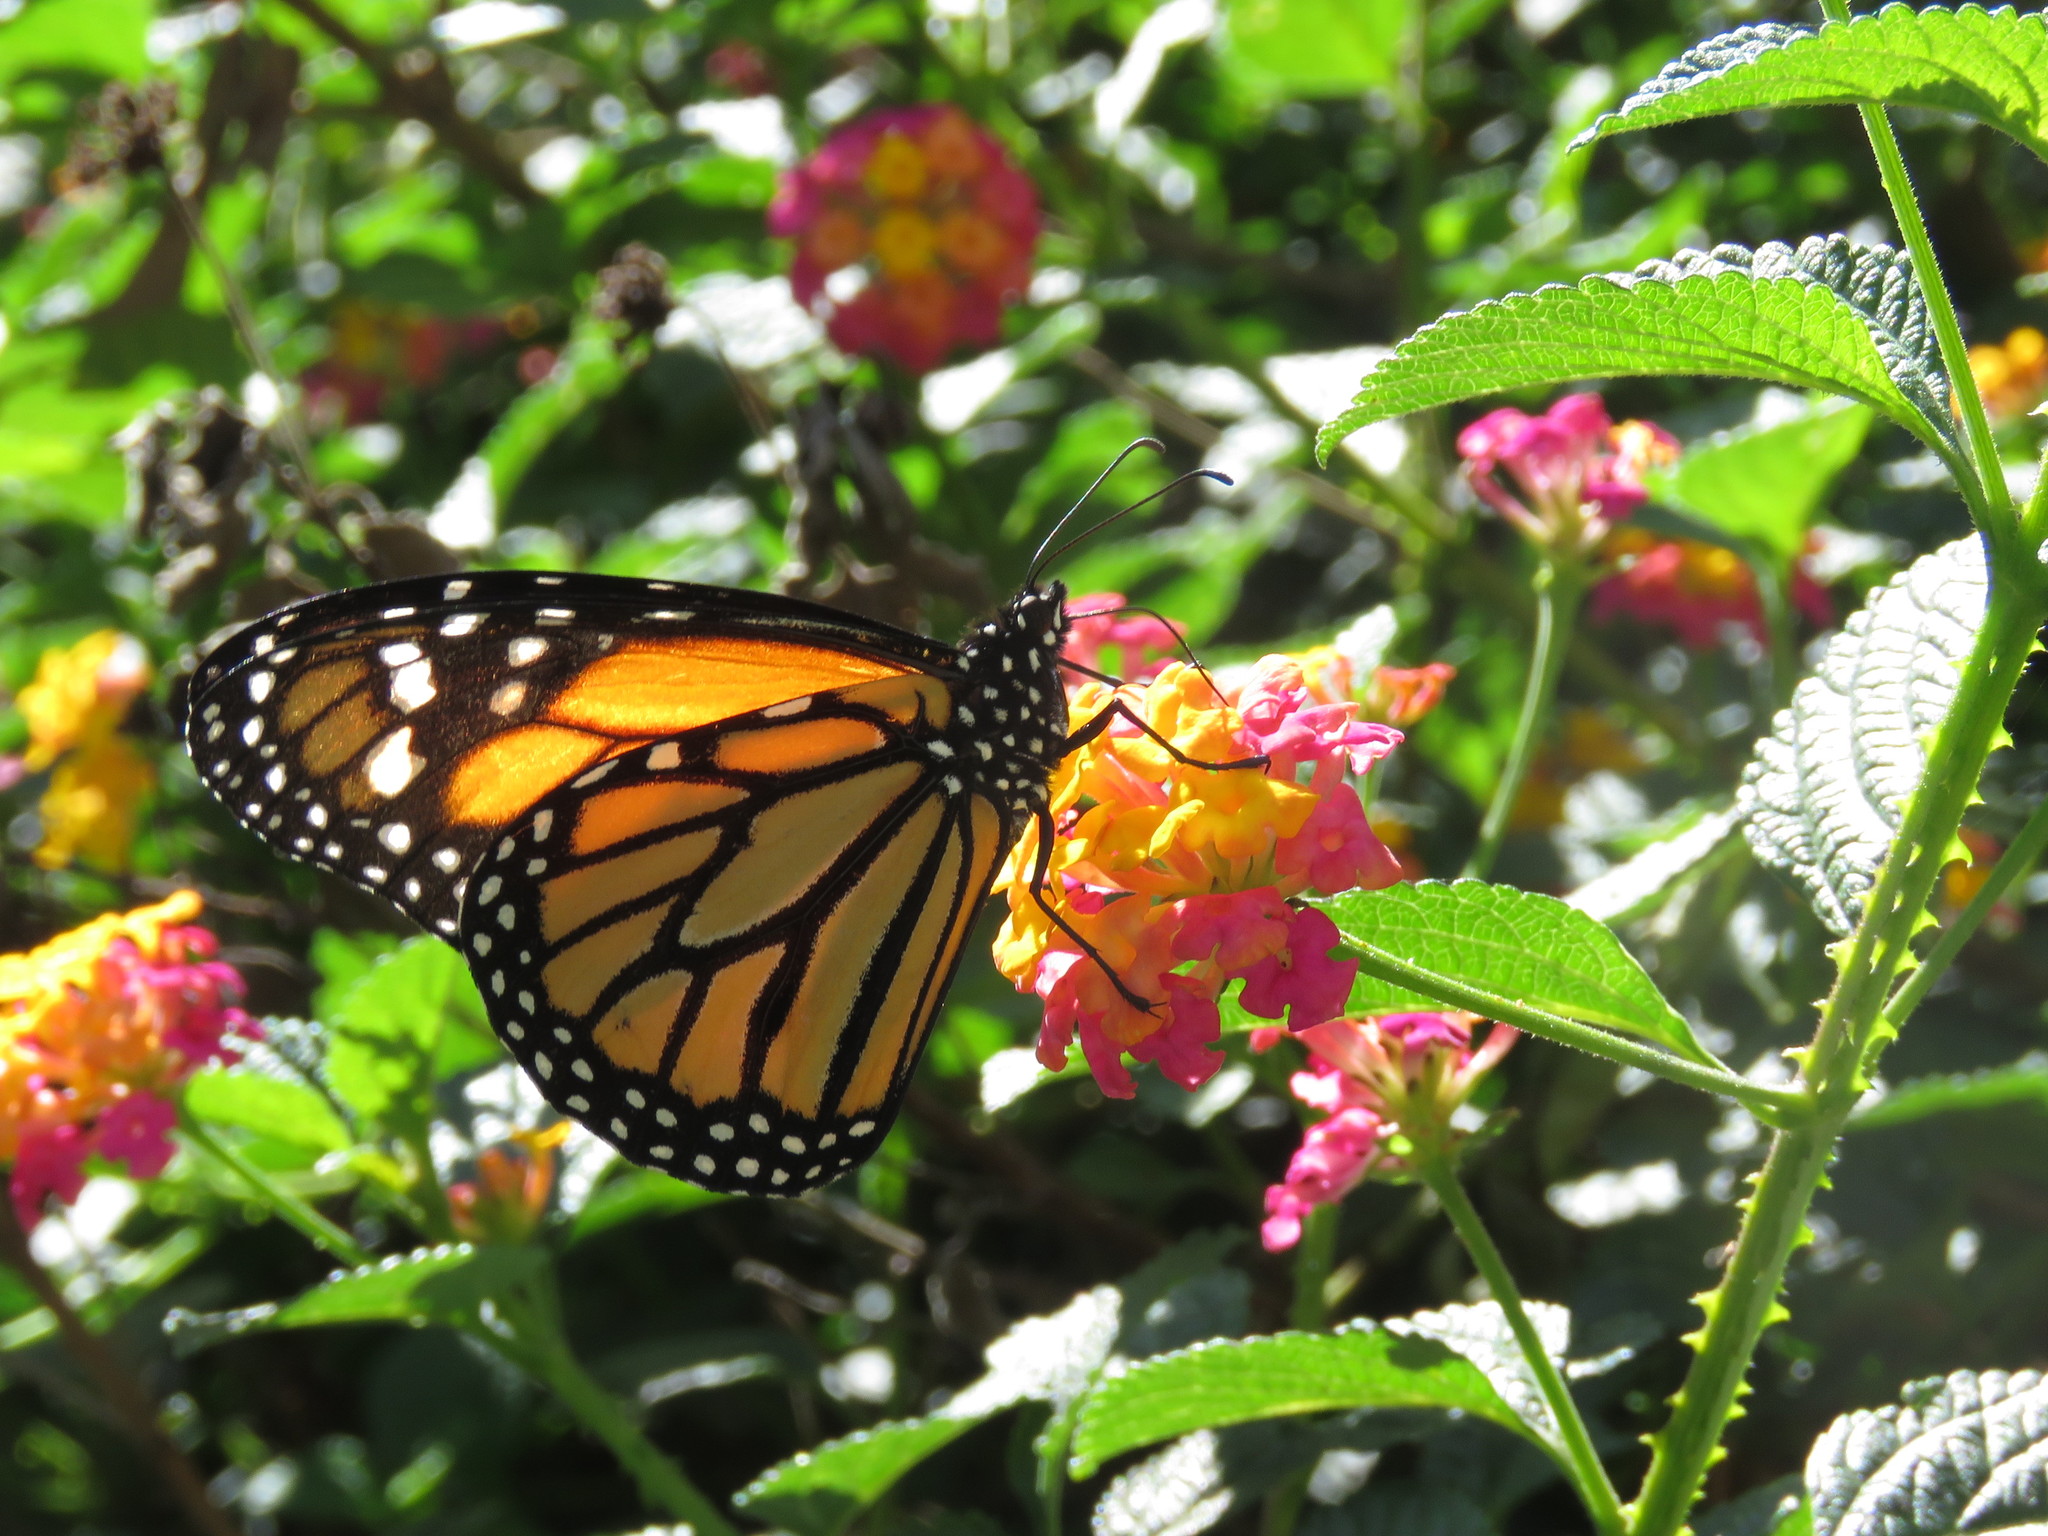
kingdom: Animalia
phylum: Arthropoda
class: Insecta
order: Lepidoptera
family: Nymphalidae
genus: Danaus
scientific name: Danaus plexippus
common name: Monarch
